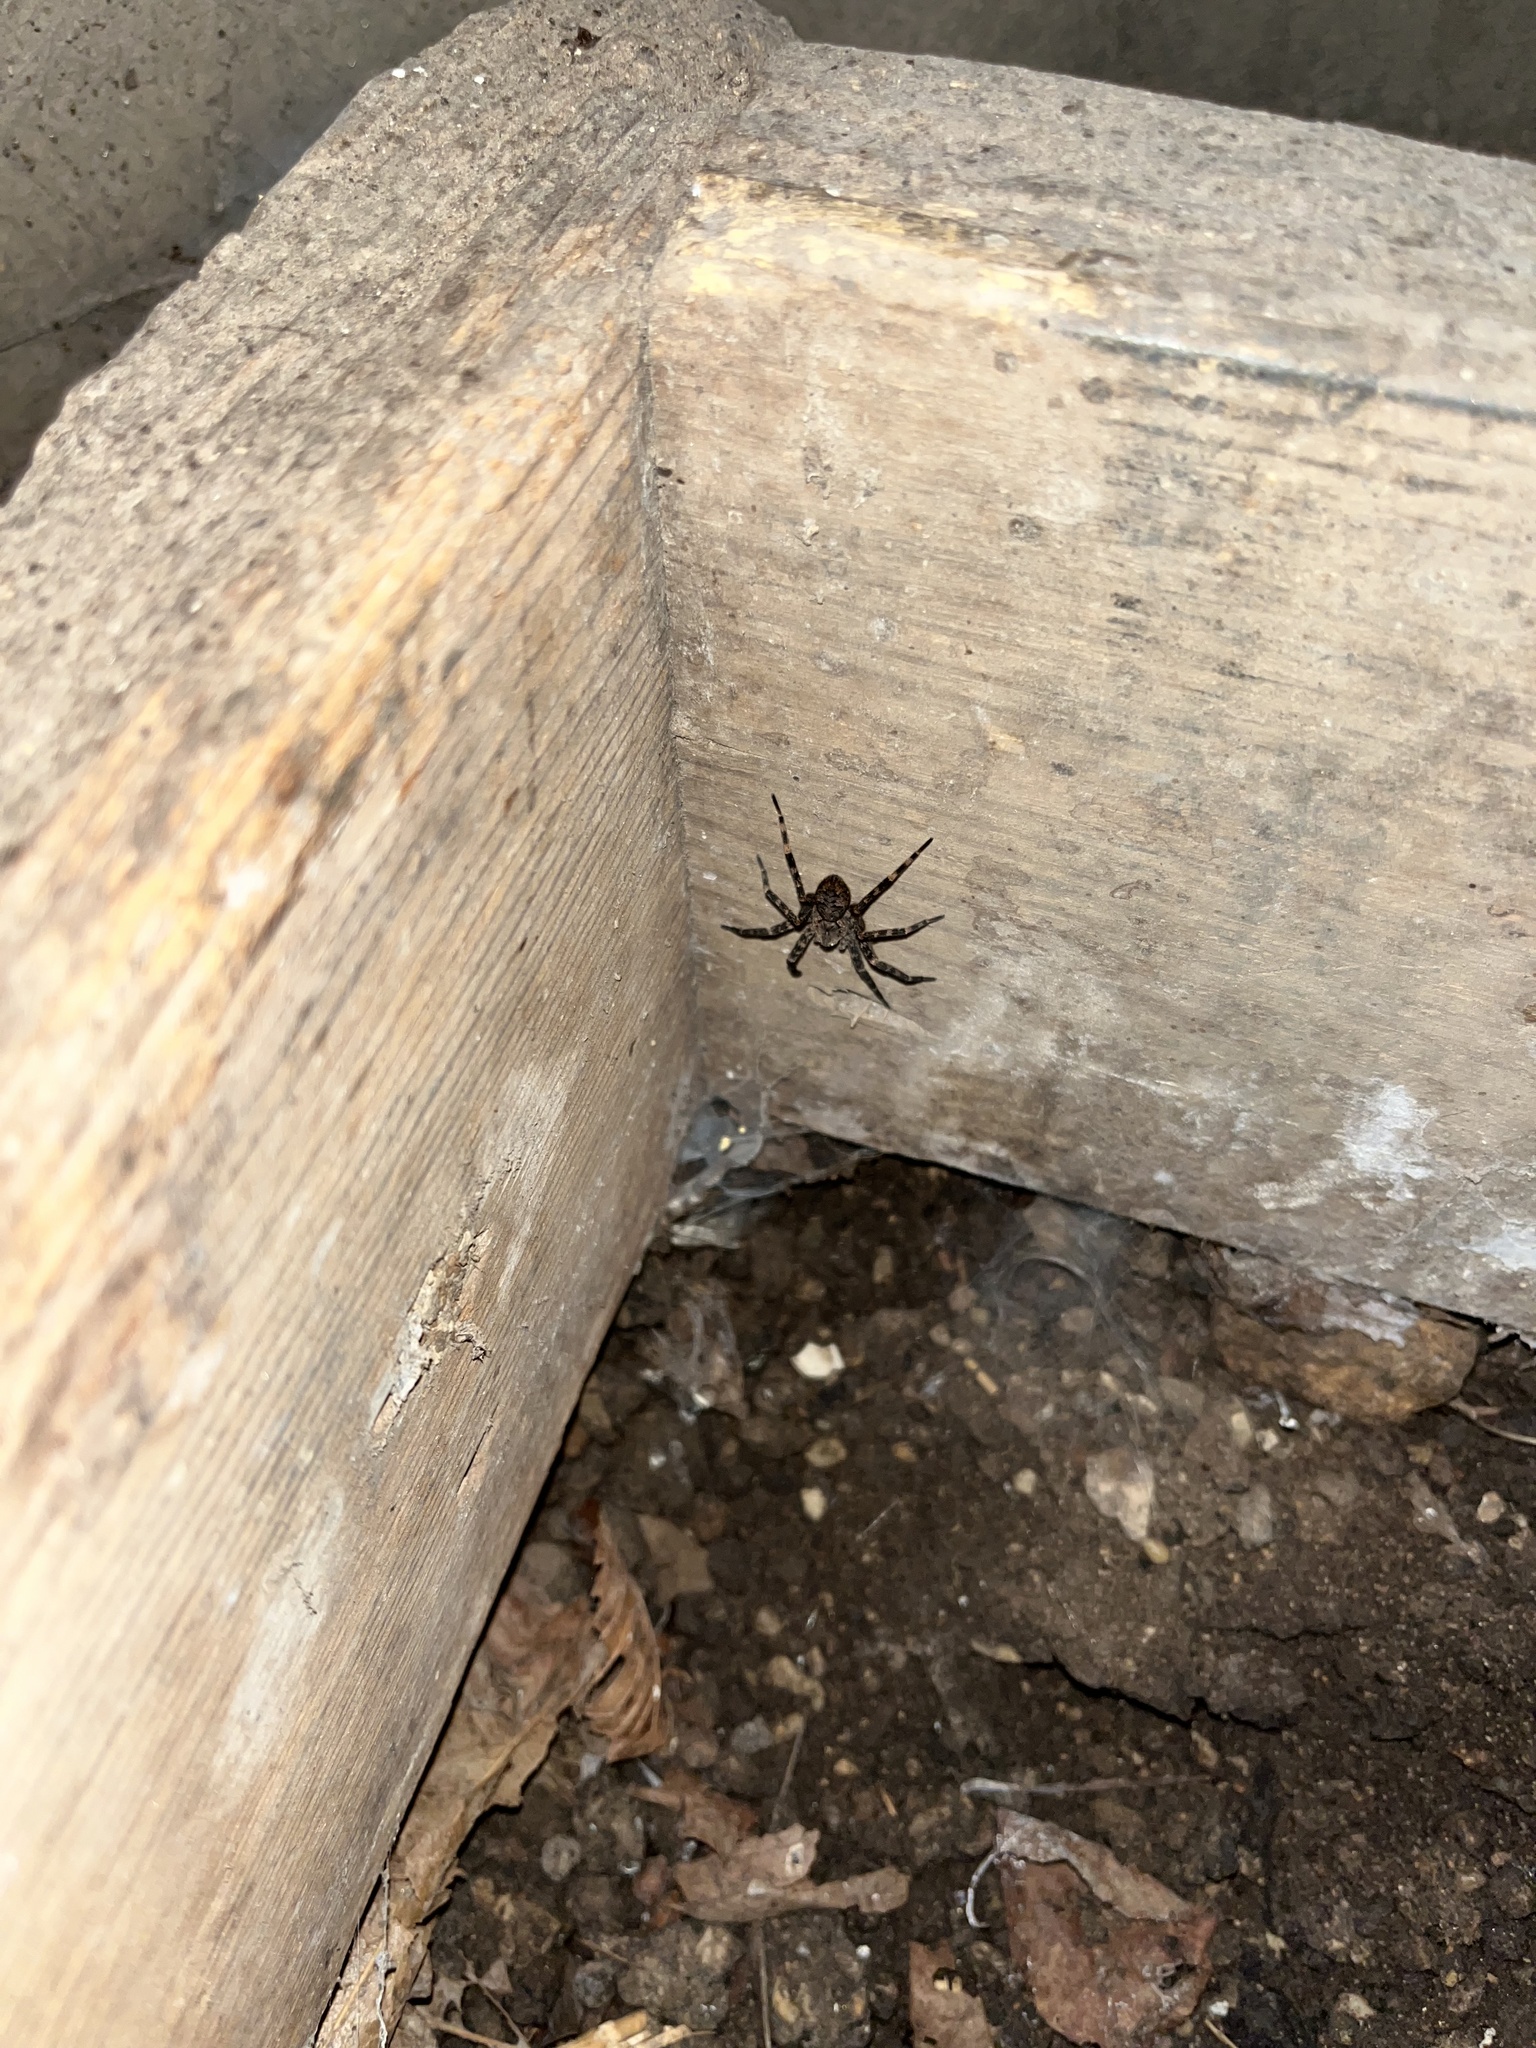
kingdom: Animalia
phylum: Arthropoda
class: Arachnida
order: Araneae
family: Pisauridae
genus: Dolomedes
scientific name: Dolomedes tenebrosus
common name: Dark fishing spider
